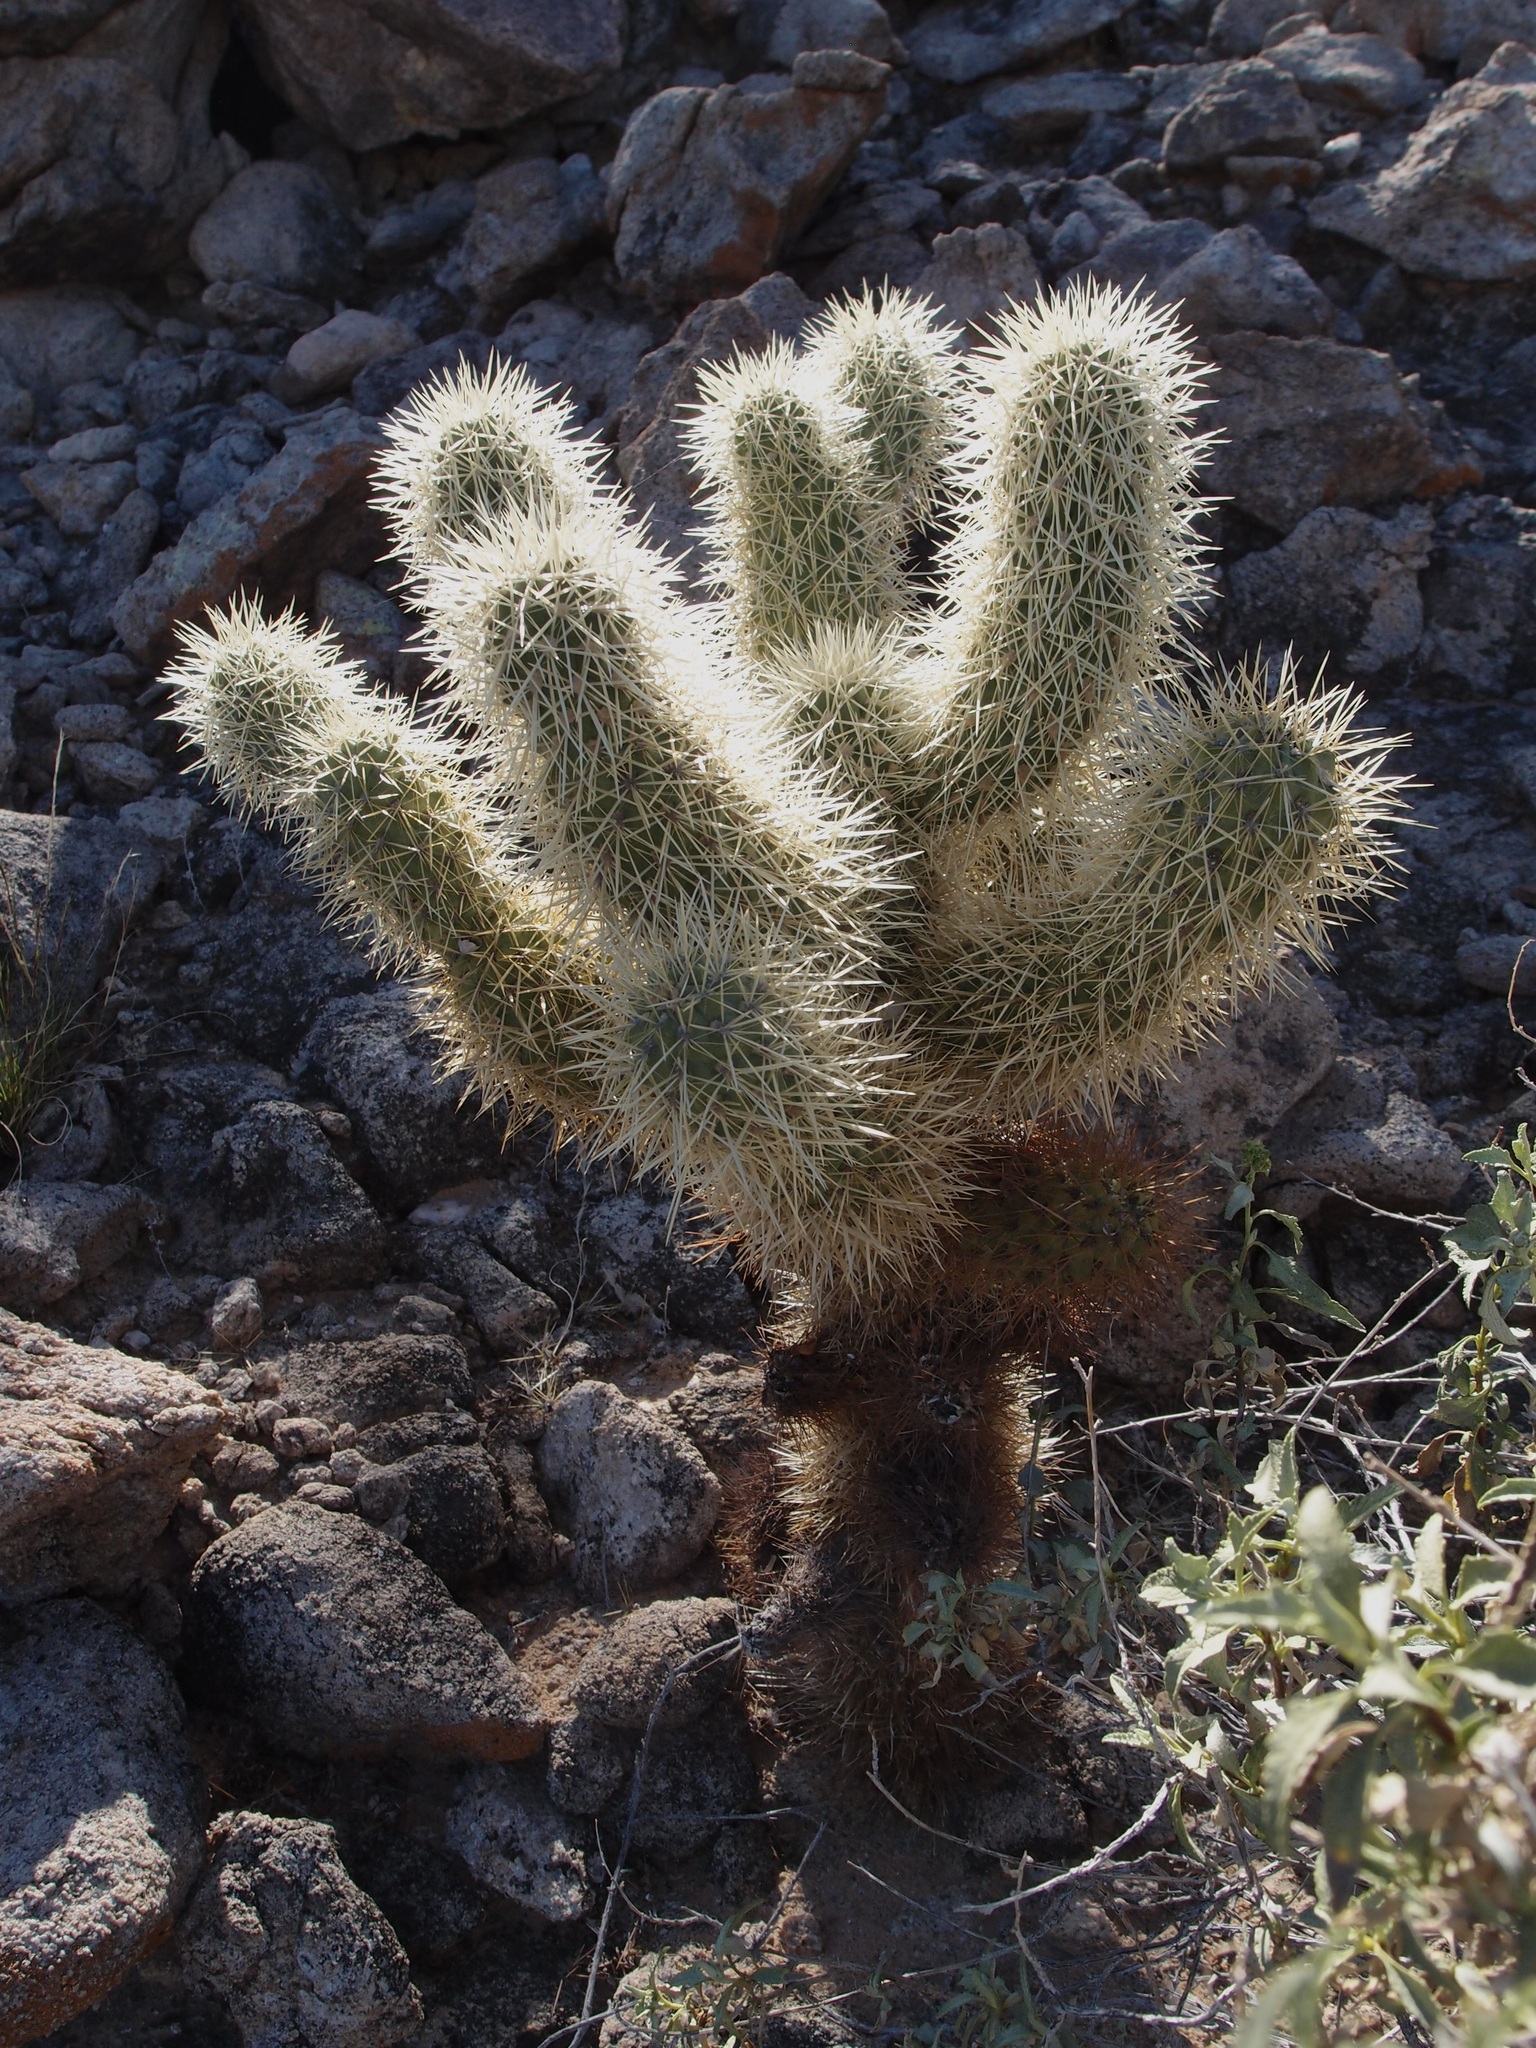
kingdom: Plantae
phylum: Tracheophyta
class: Magnoliopsida
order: Caryophyllales
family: Cactaceae
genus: Cylindropuntia
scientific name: Cylindropuntia fosbergii
